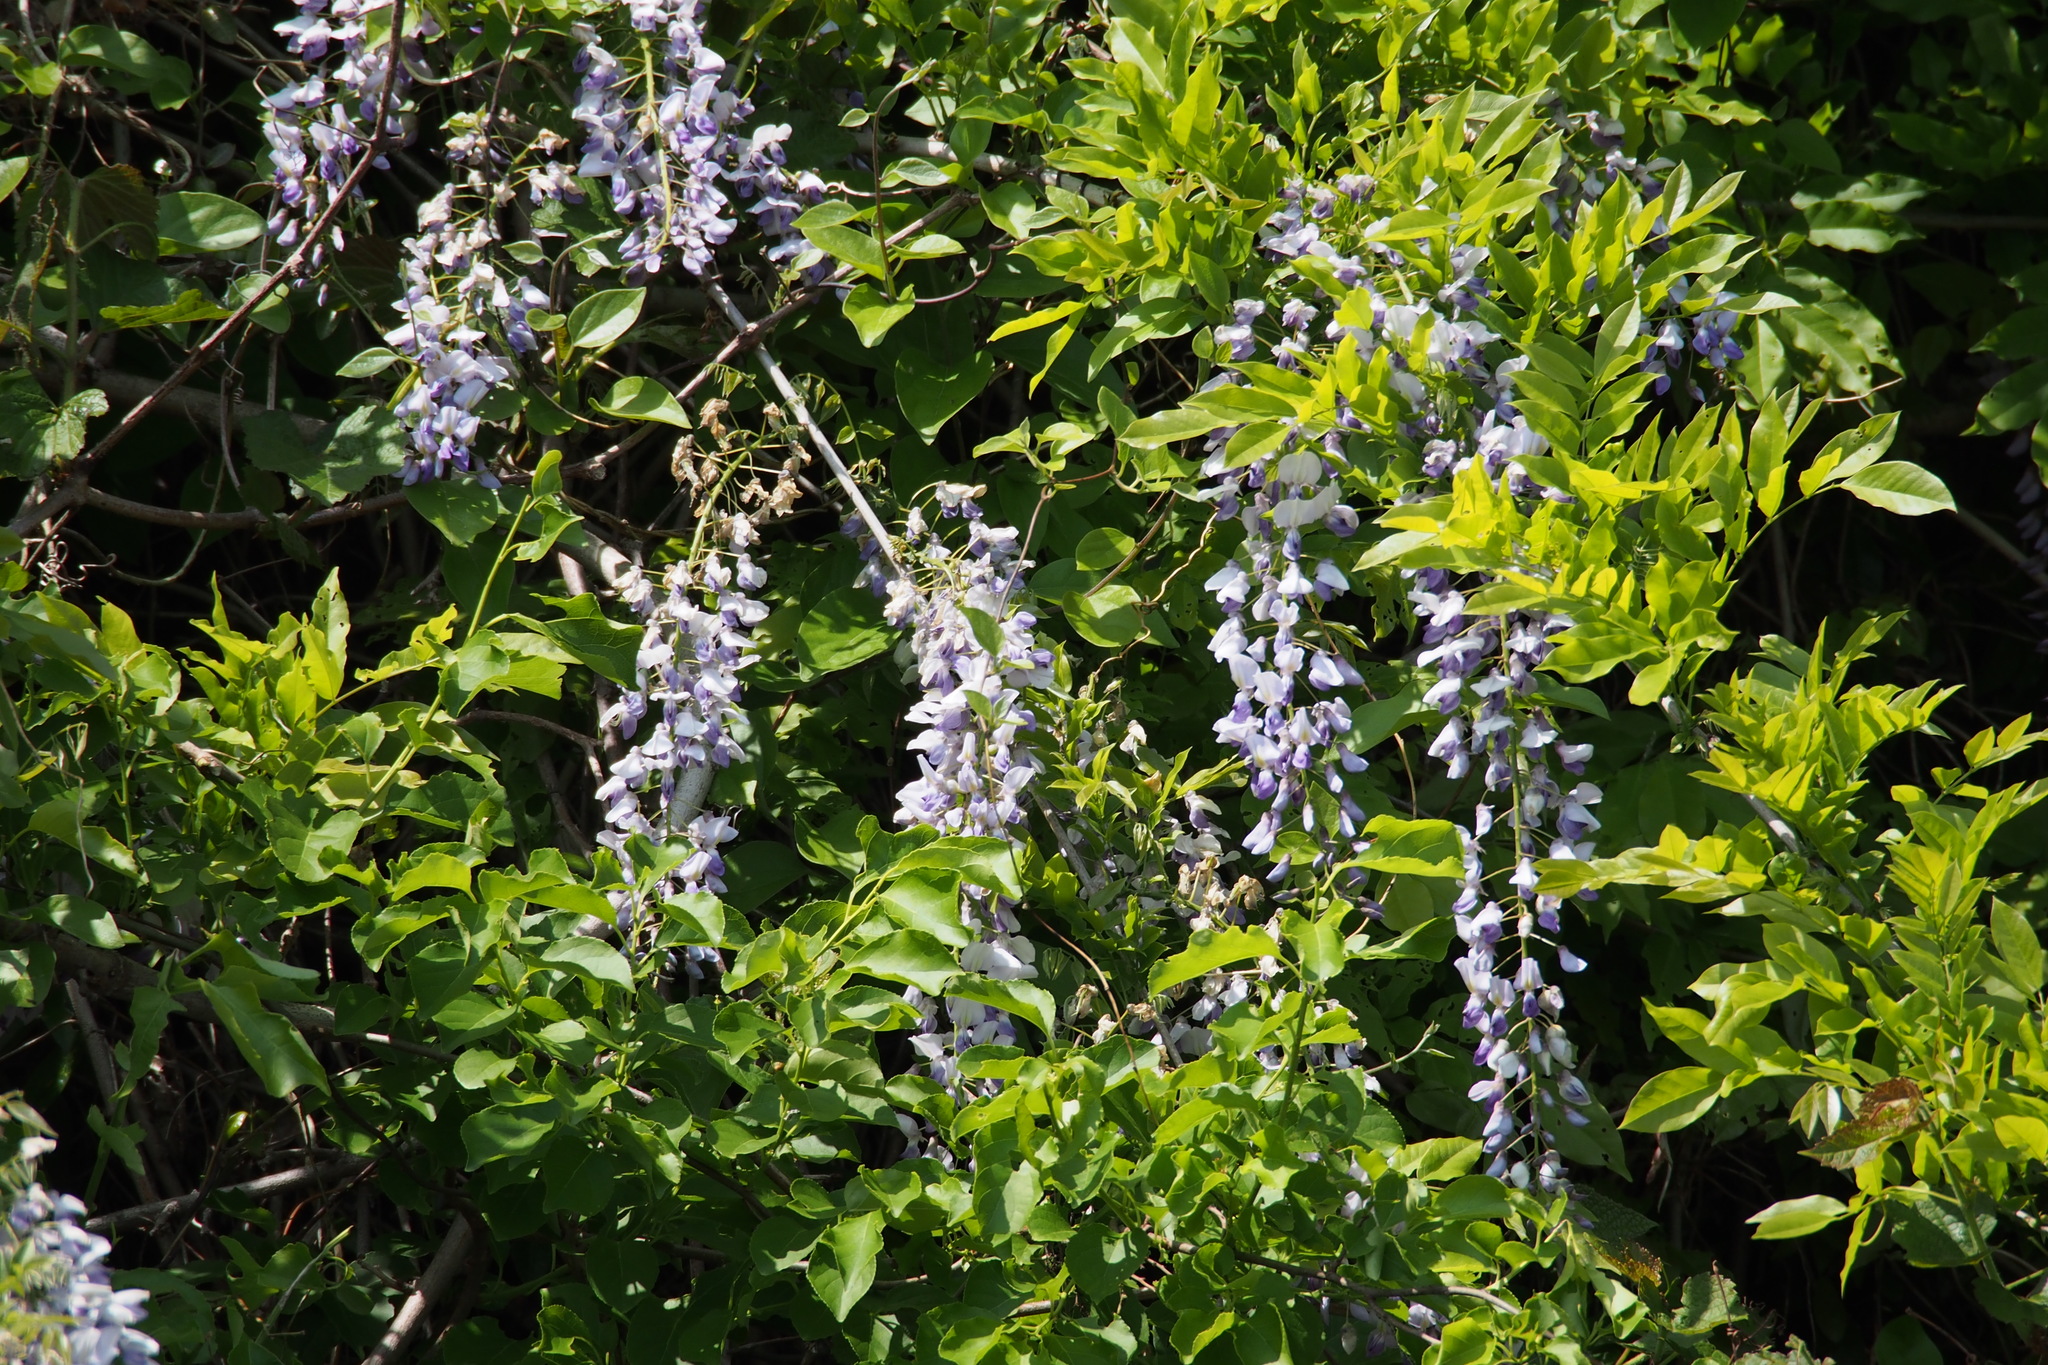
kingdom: Plantae
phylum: Tracheophyta
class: Magnoliopsida
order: Fabales
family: Fabaceae
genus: Wisteria
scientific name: Wisteria floribunda
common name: Japanese wisteria
